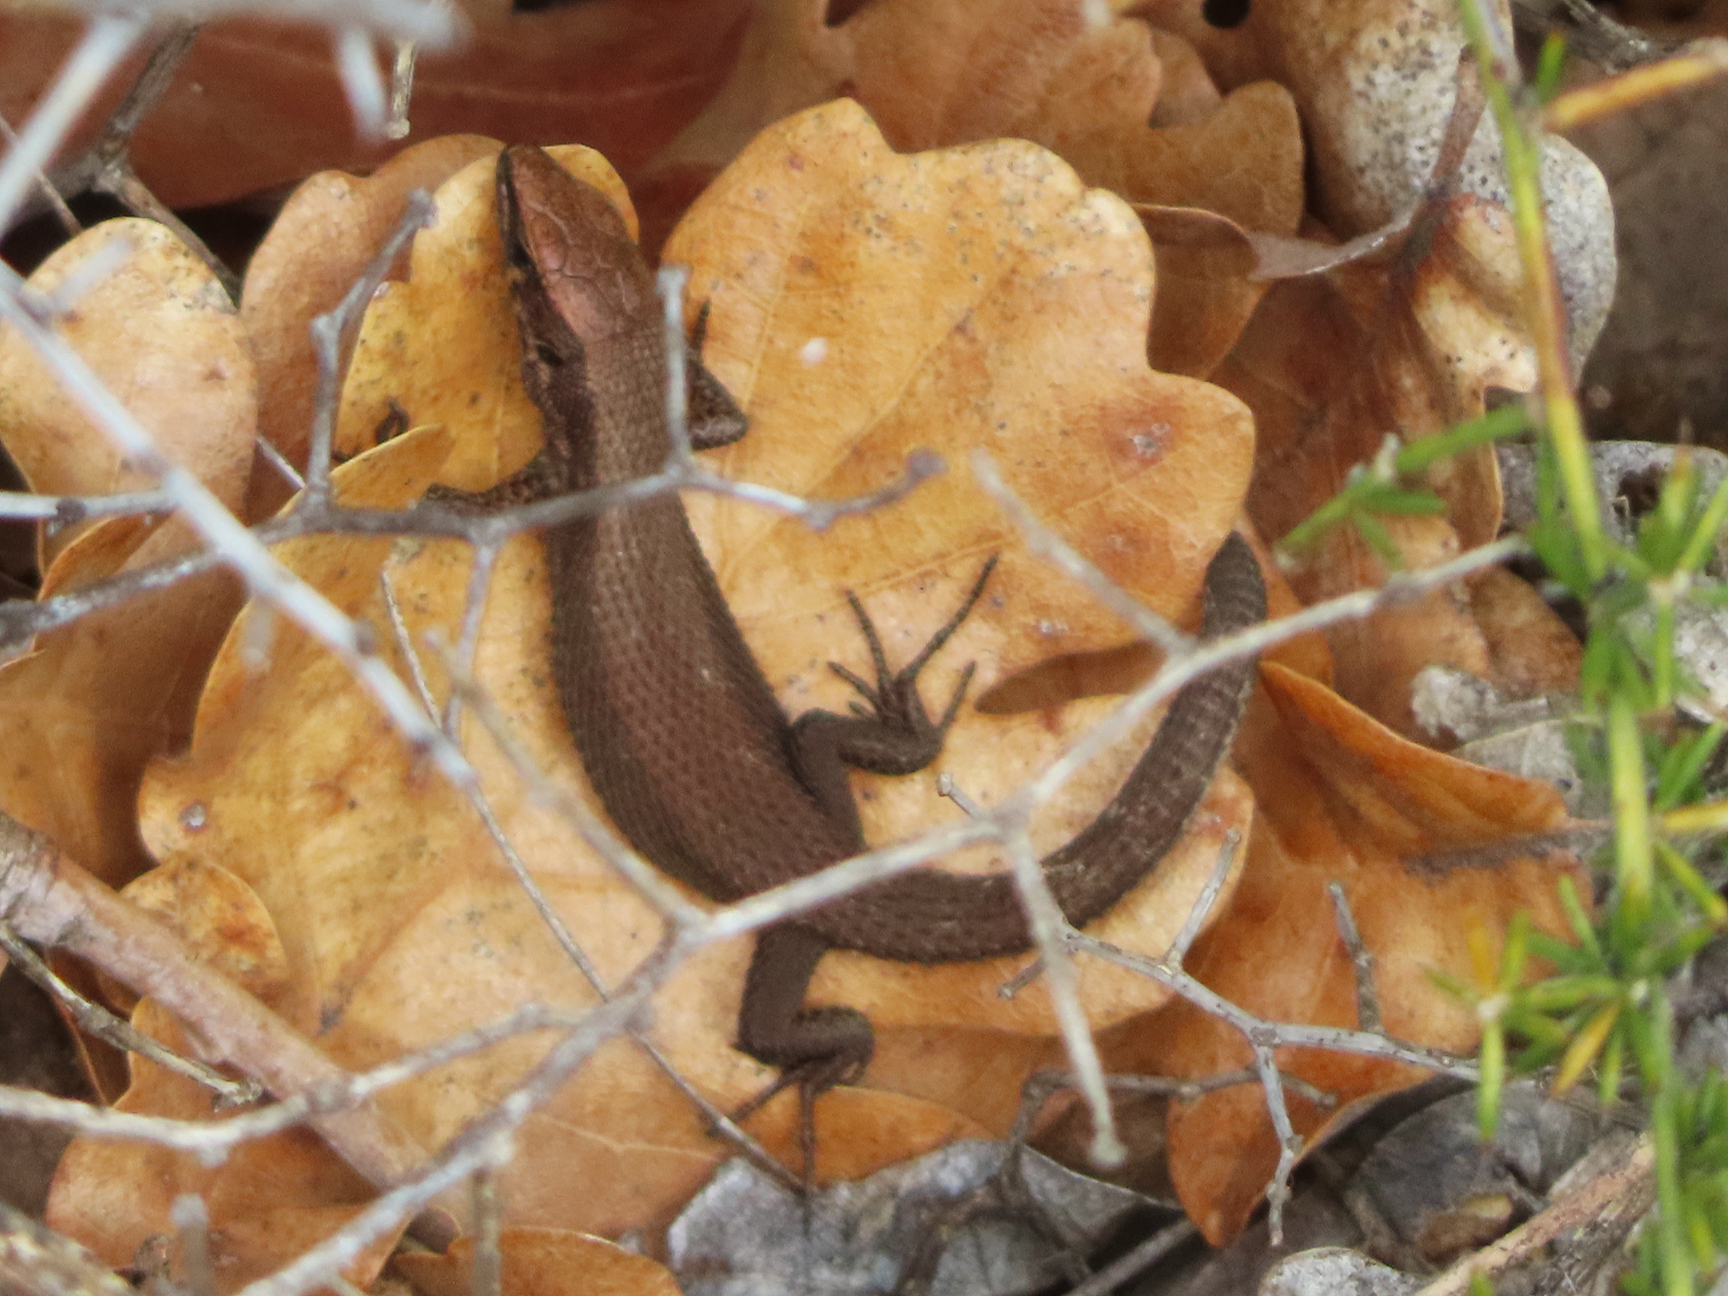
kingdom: Animalia
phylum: Chordata
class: Squamata
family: Lacertidae
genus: Algyroides
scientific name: Algyroides moreoticus
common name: Greek algyroides
